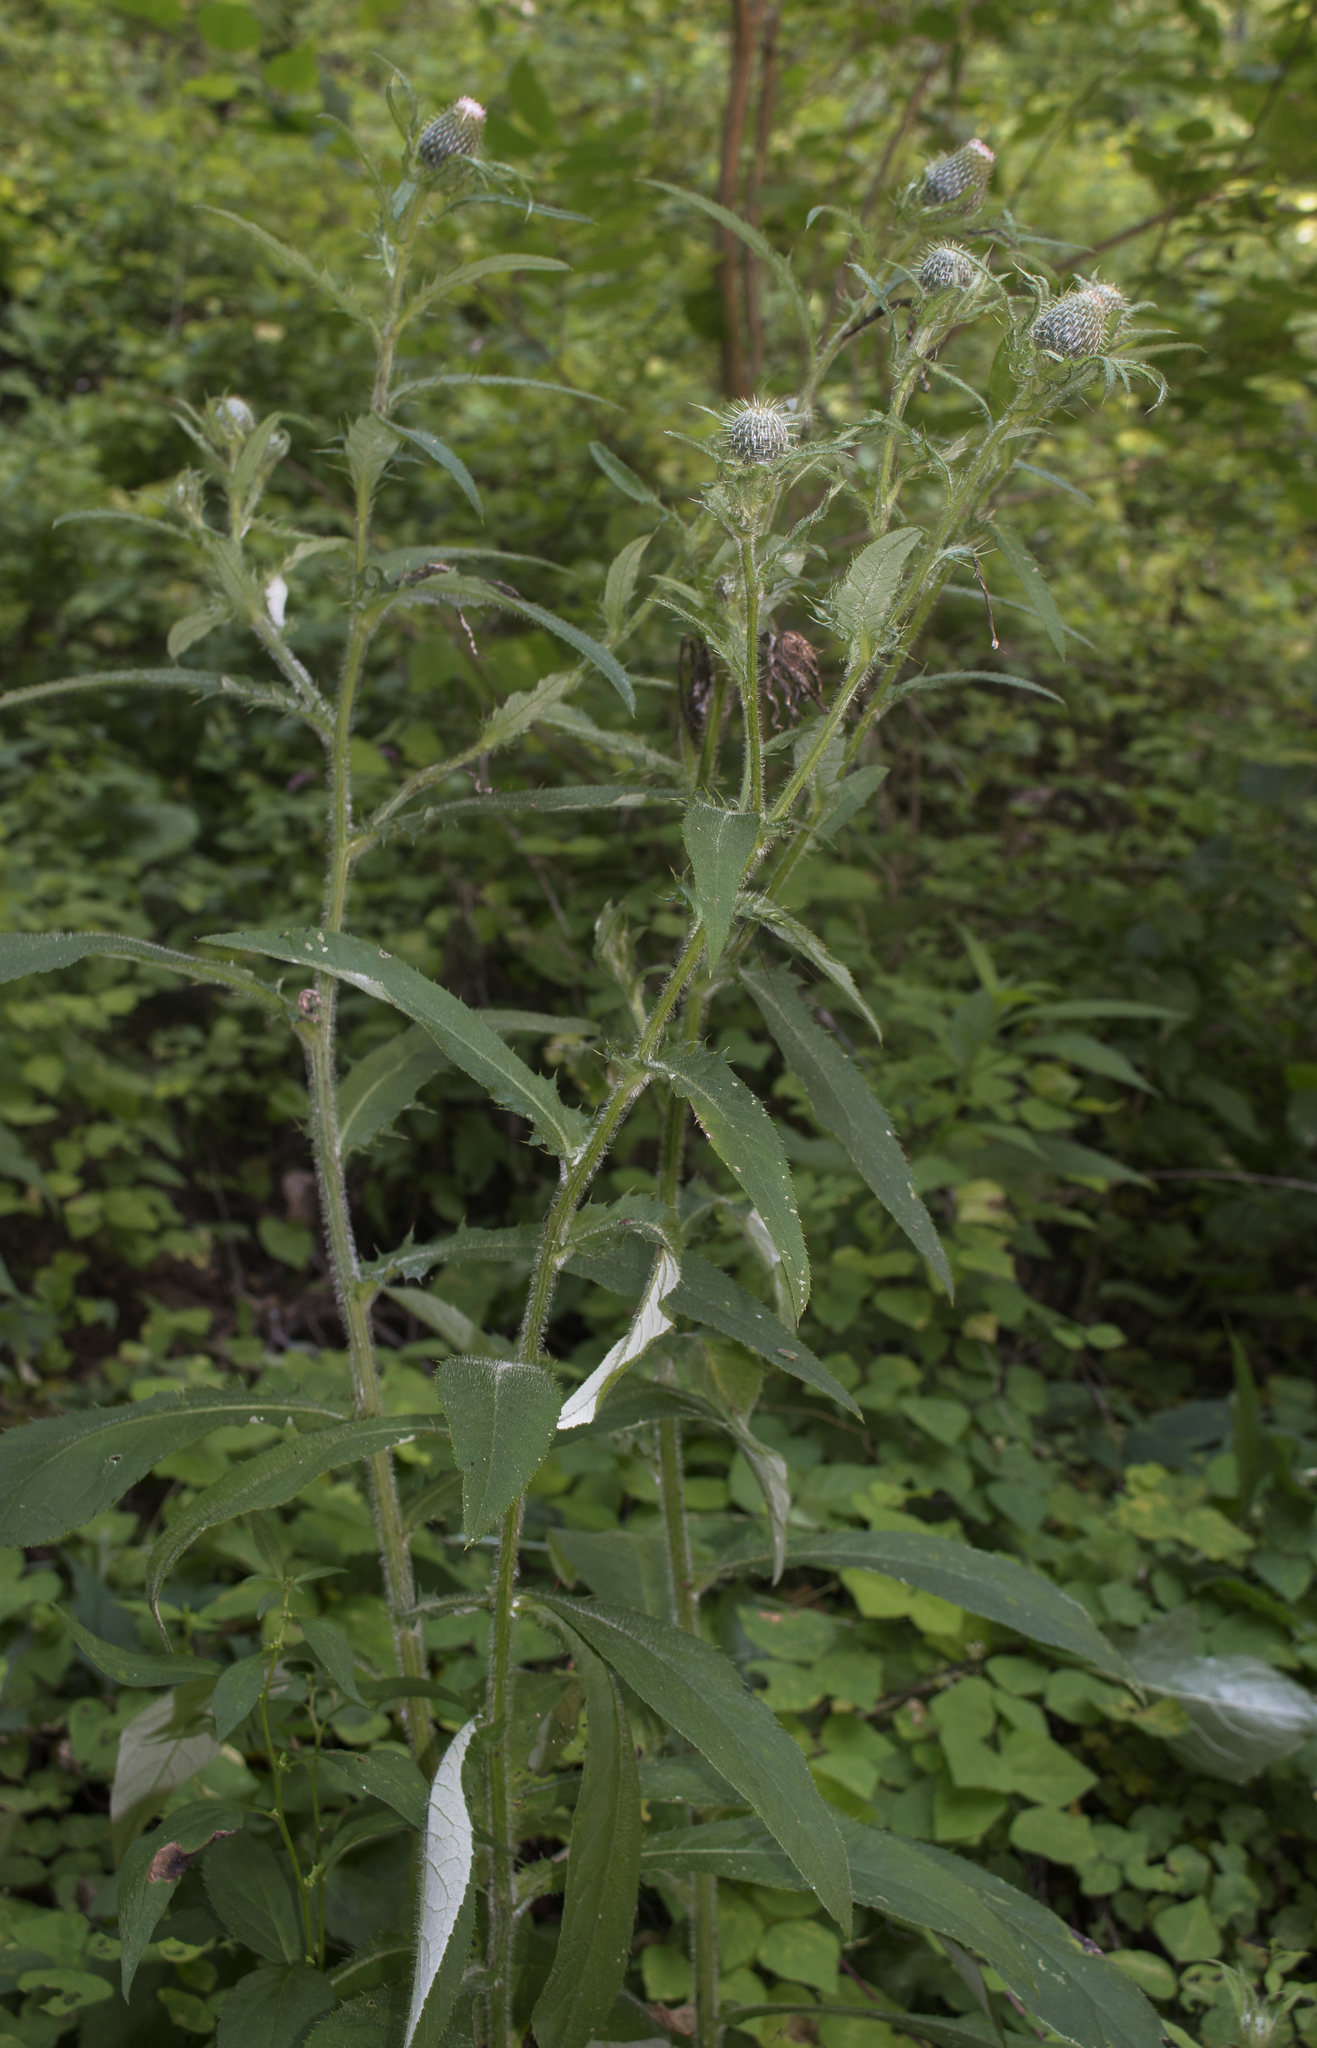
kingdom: Plantae
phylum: Tracheophyta
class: Magnoliopsida
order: Asterales
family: Asteraceae
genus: Cirsium
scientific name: Cirsium altissimum
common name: Roadside thistle
